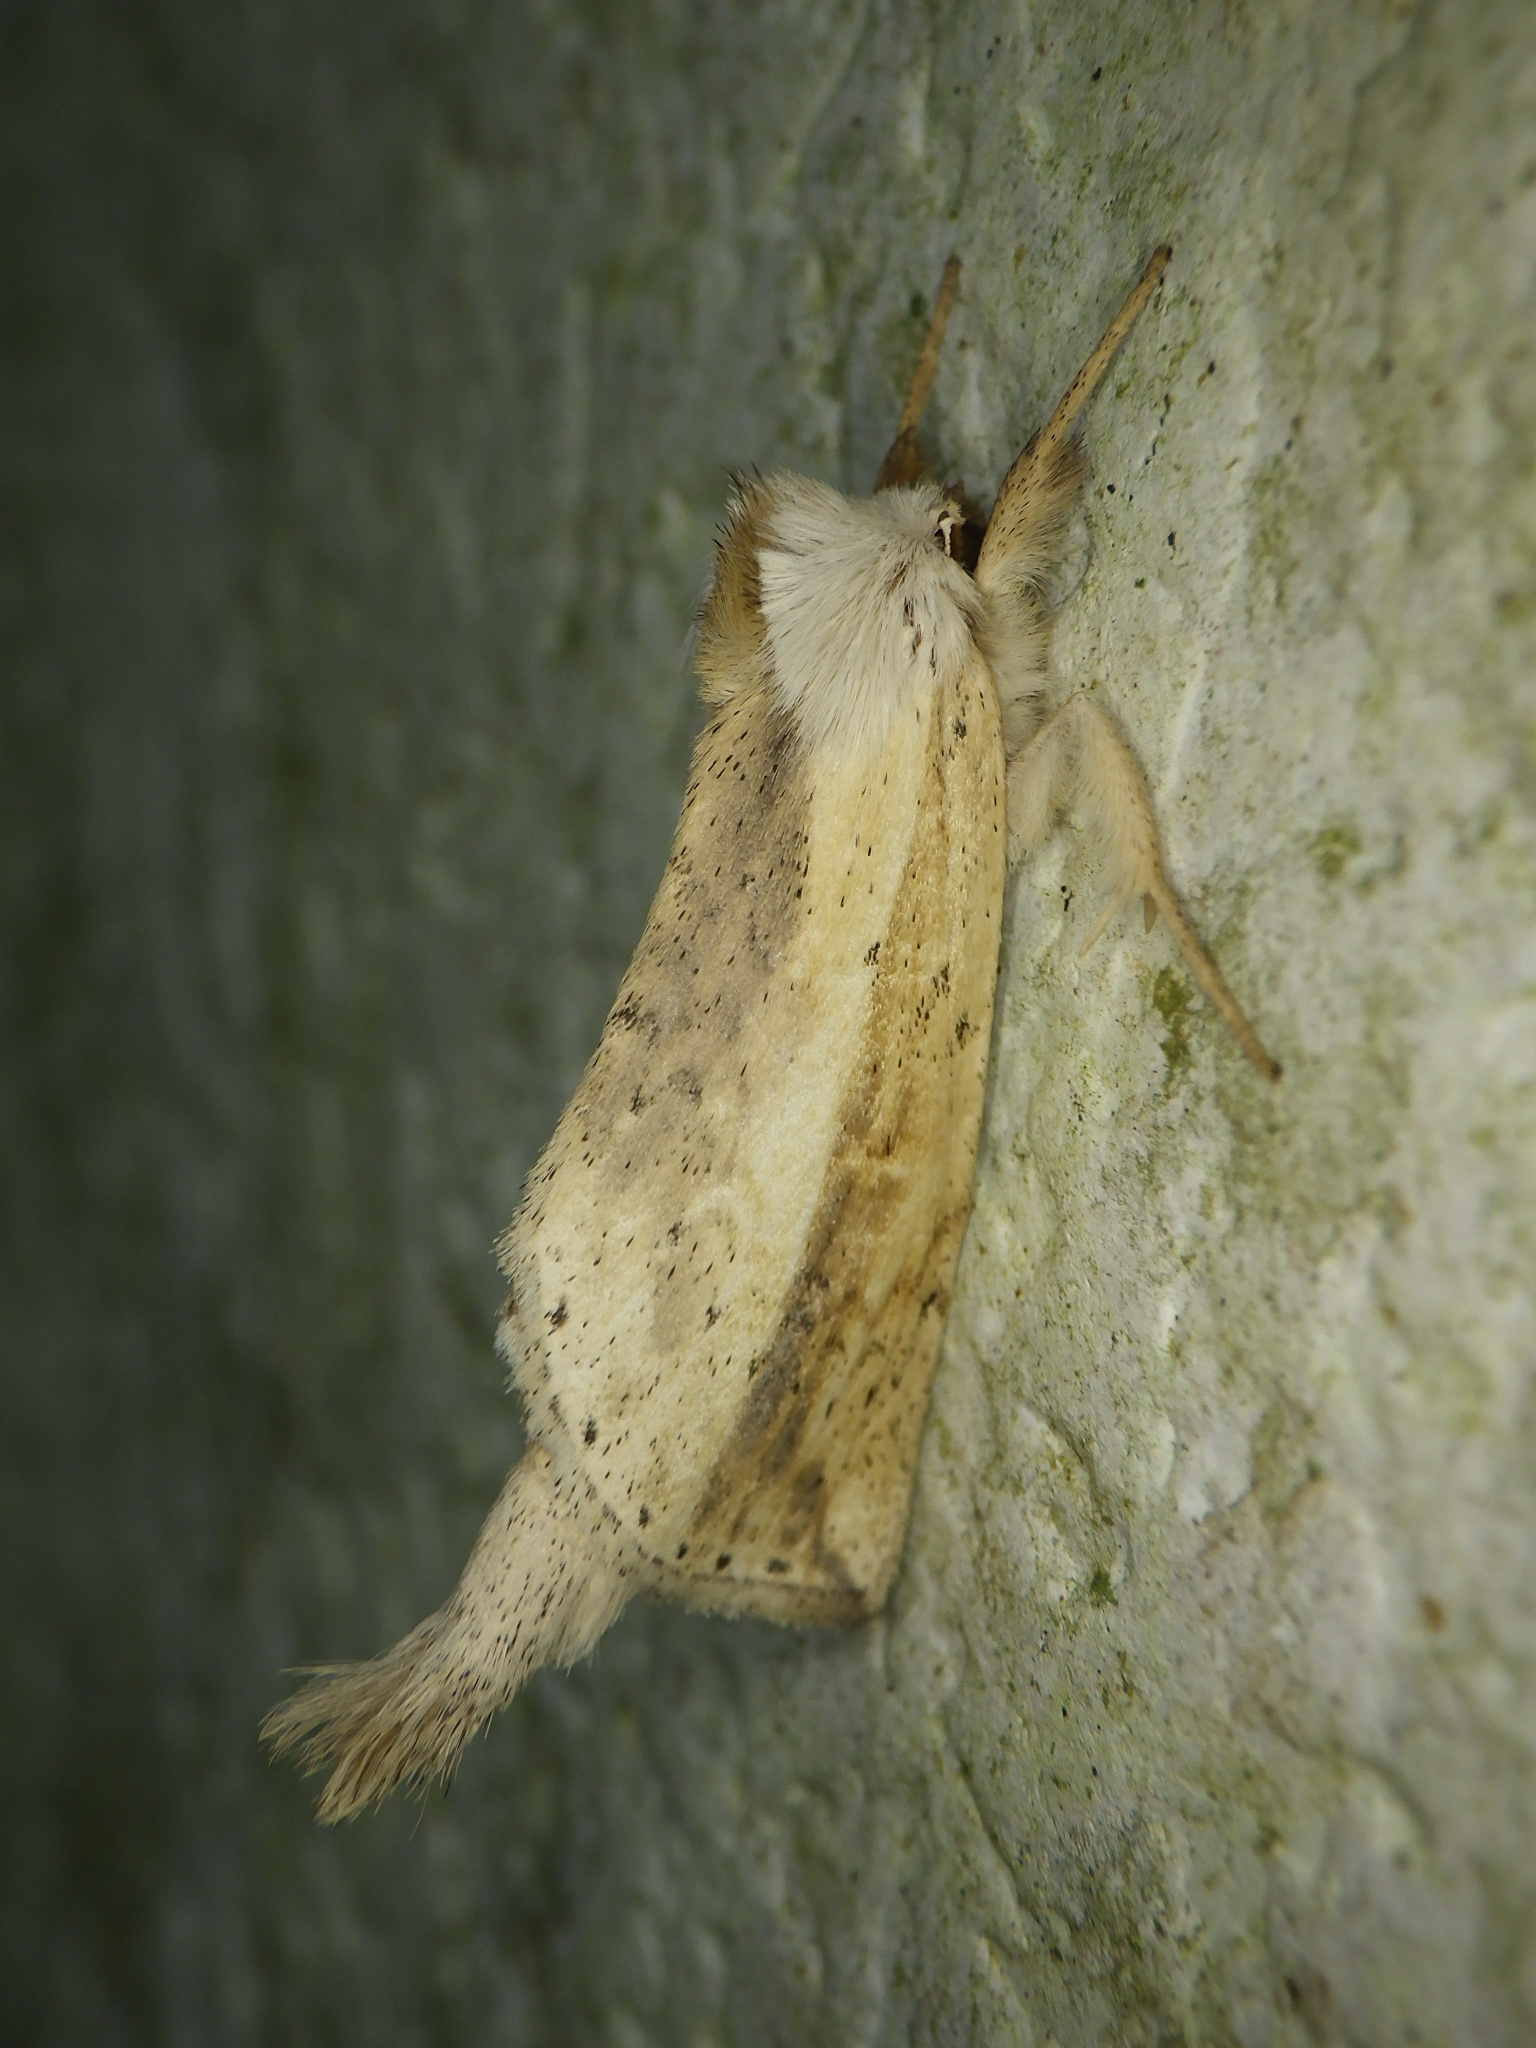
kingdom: Animalia
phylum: Arthropoda
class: Insecta
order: Lepidoptera
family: Notodontidae
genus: Mimopydna
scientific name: Mimopydna pallida
